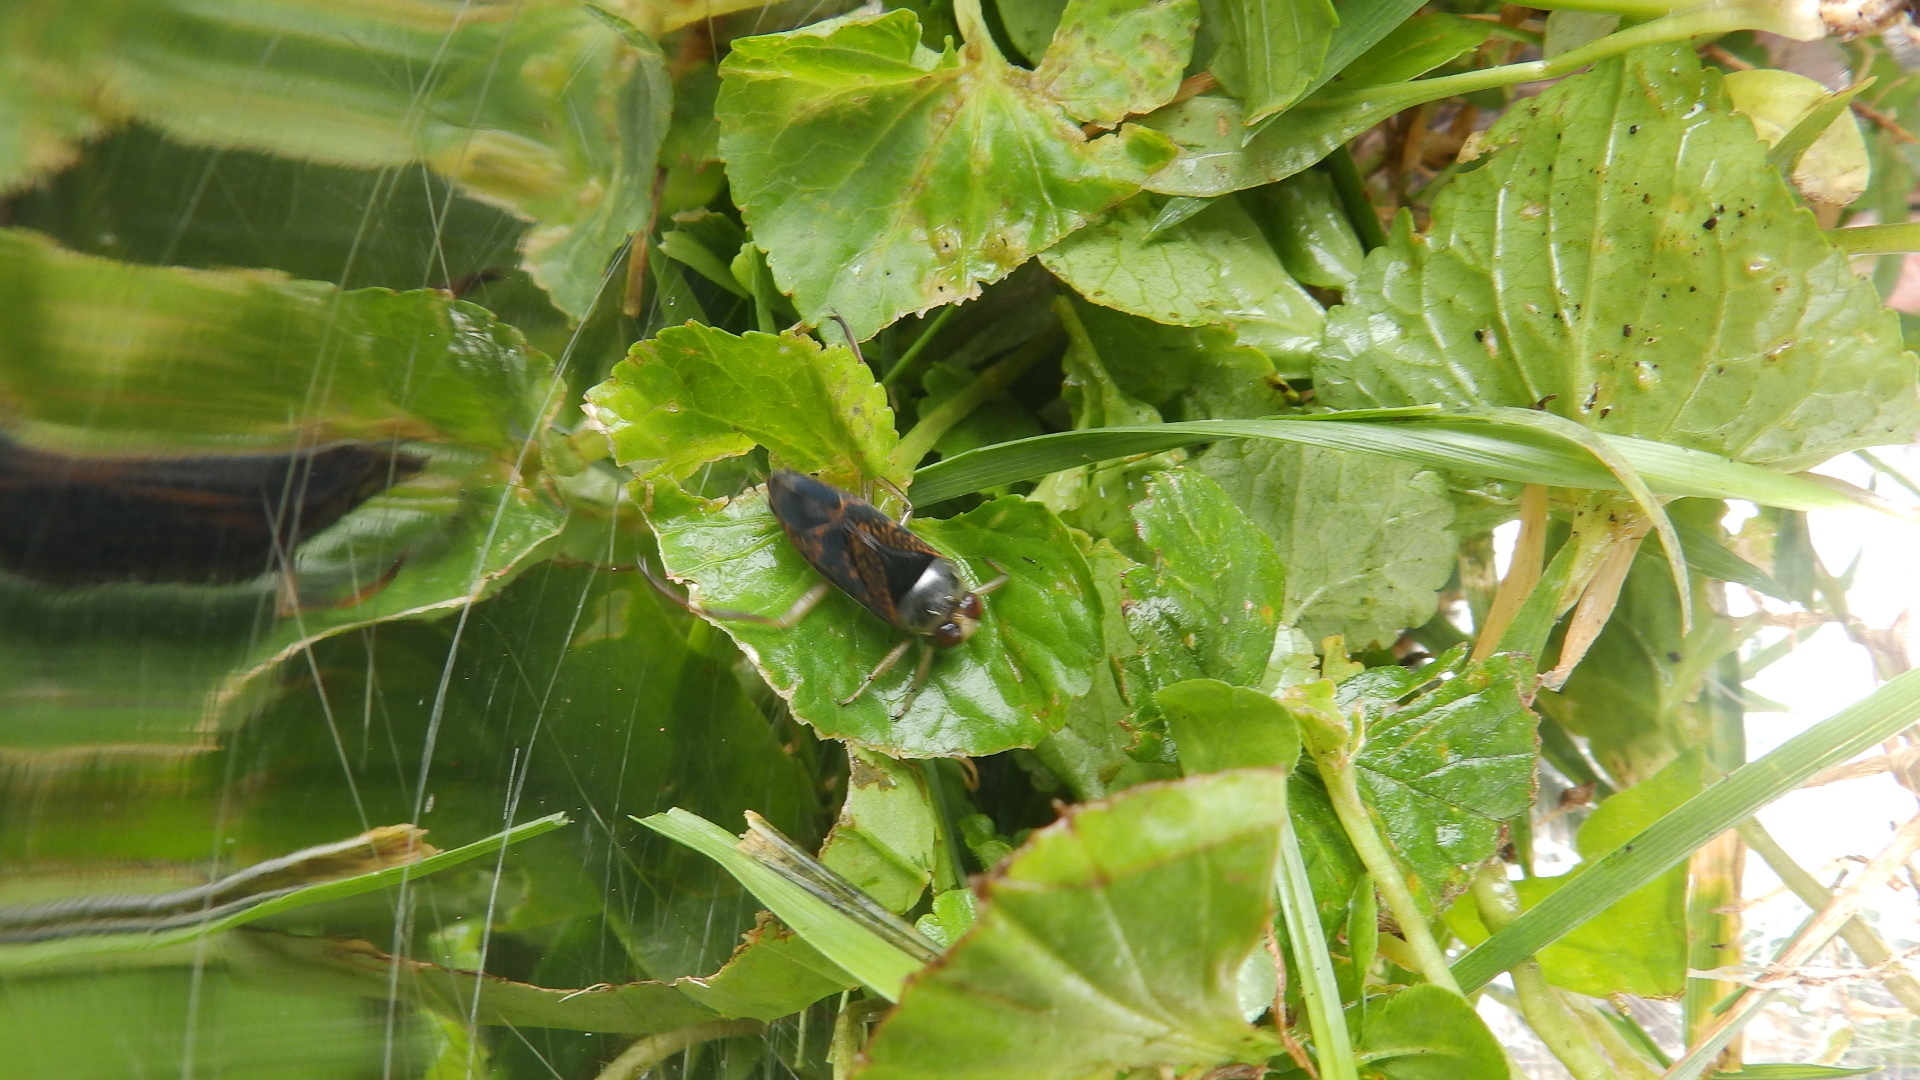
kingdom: Animalia
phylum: Arthropoda
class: Insecta
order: Hemiptera
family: Notonectidae
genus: Notonecta
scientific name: Notonecta irrorata
